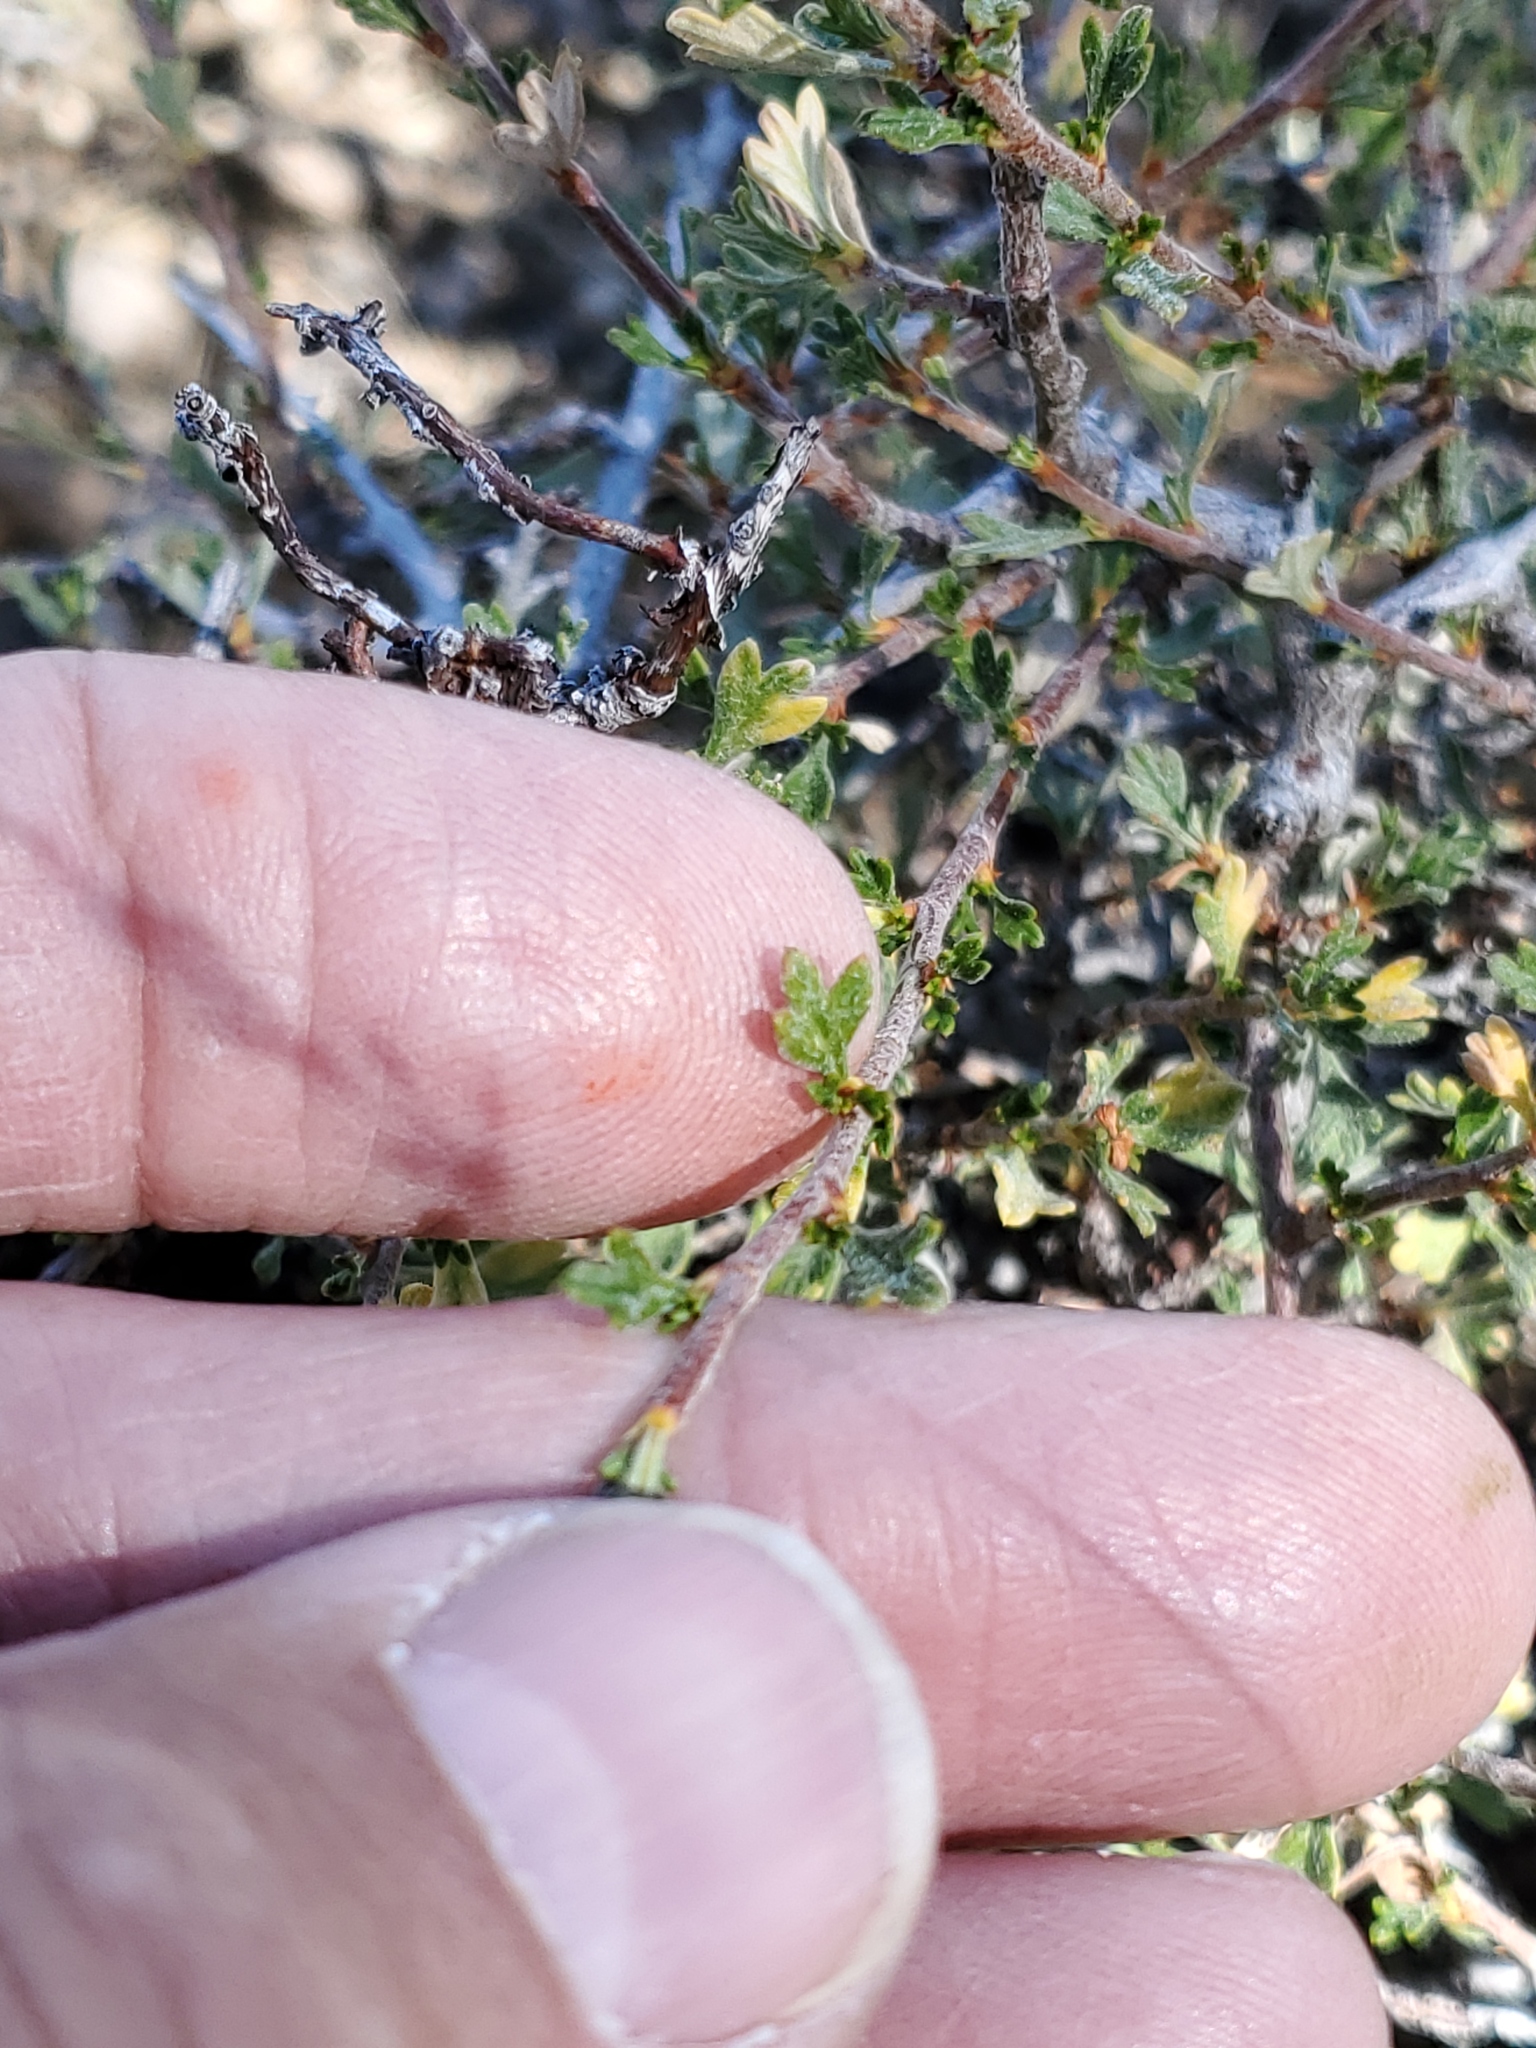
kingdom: Plantae
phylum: Tracheophyta
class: Magnoliopsida
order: Rosales
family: Rosaceae
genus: Purshia
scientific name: Purshia tridentata
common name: Antelope bitterbrush
